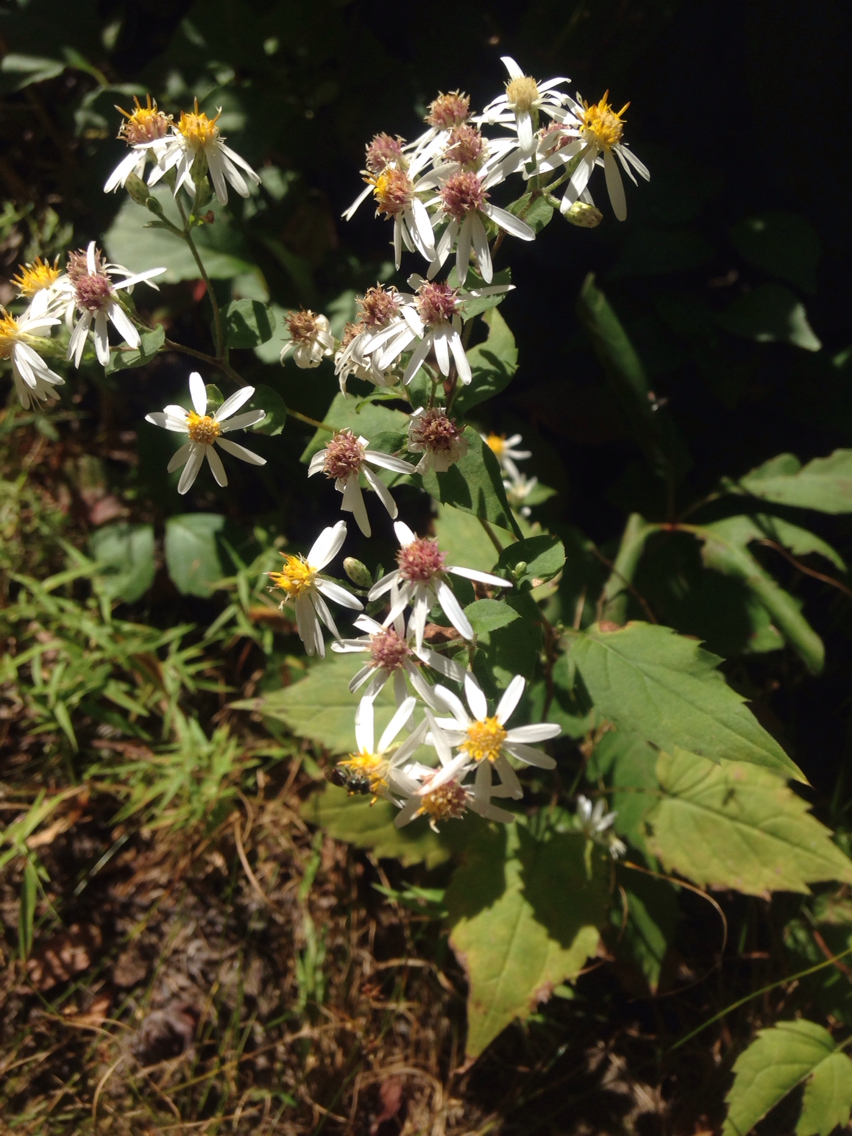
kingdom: Plantae
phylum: Tracheophyta
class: Magnoliopsida
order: Asterales
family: Asteraceae
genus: Eurybia
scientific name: Eurybia divaricata
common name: White wood aster
